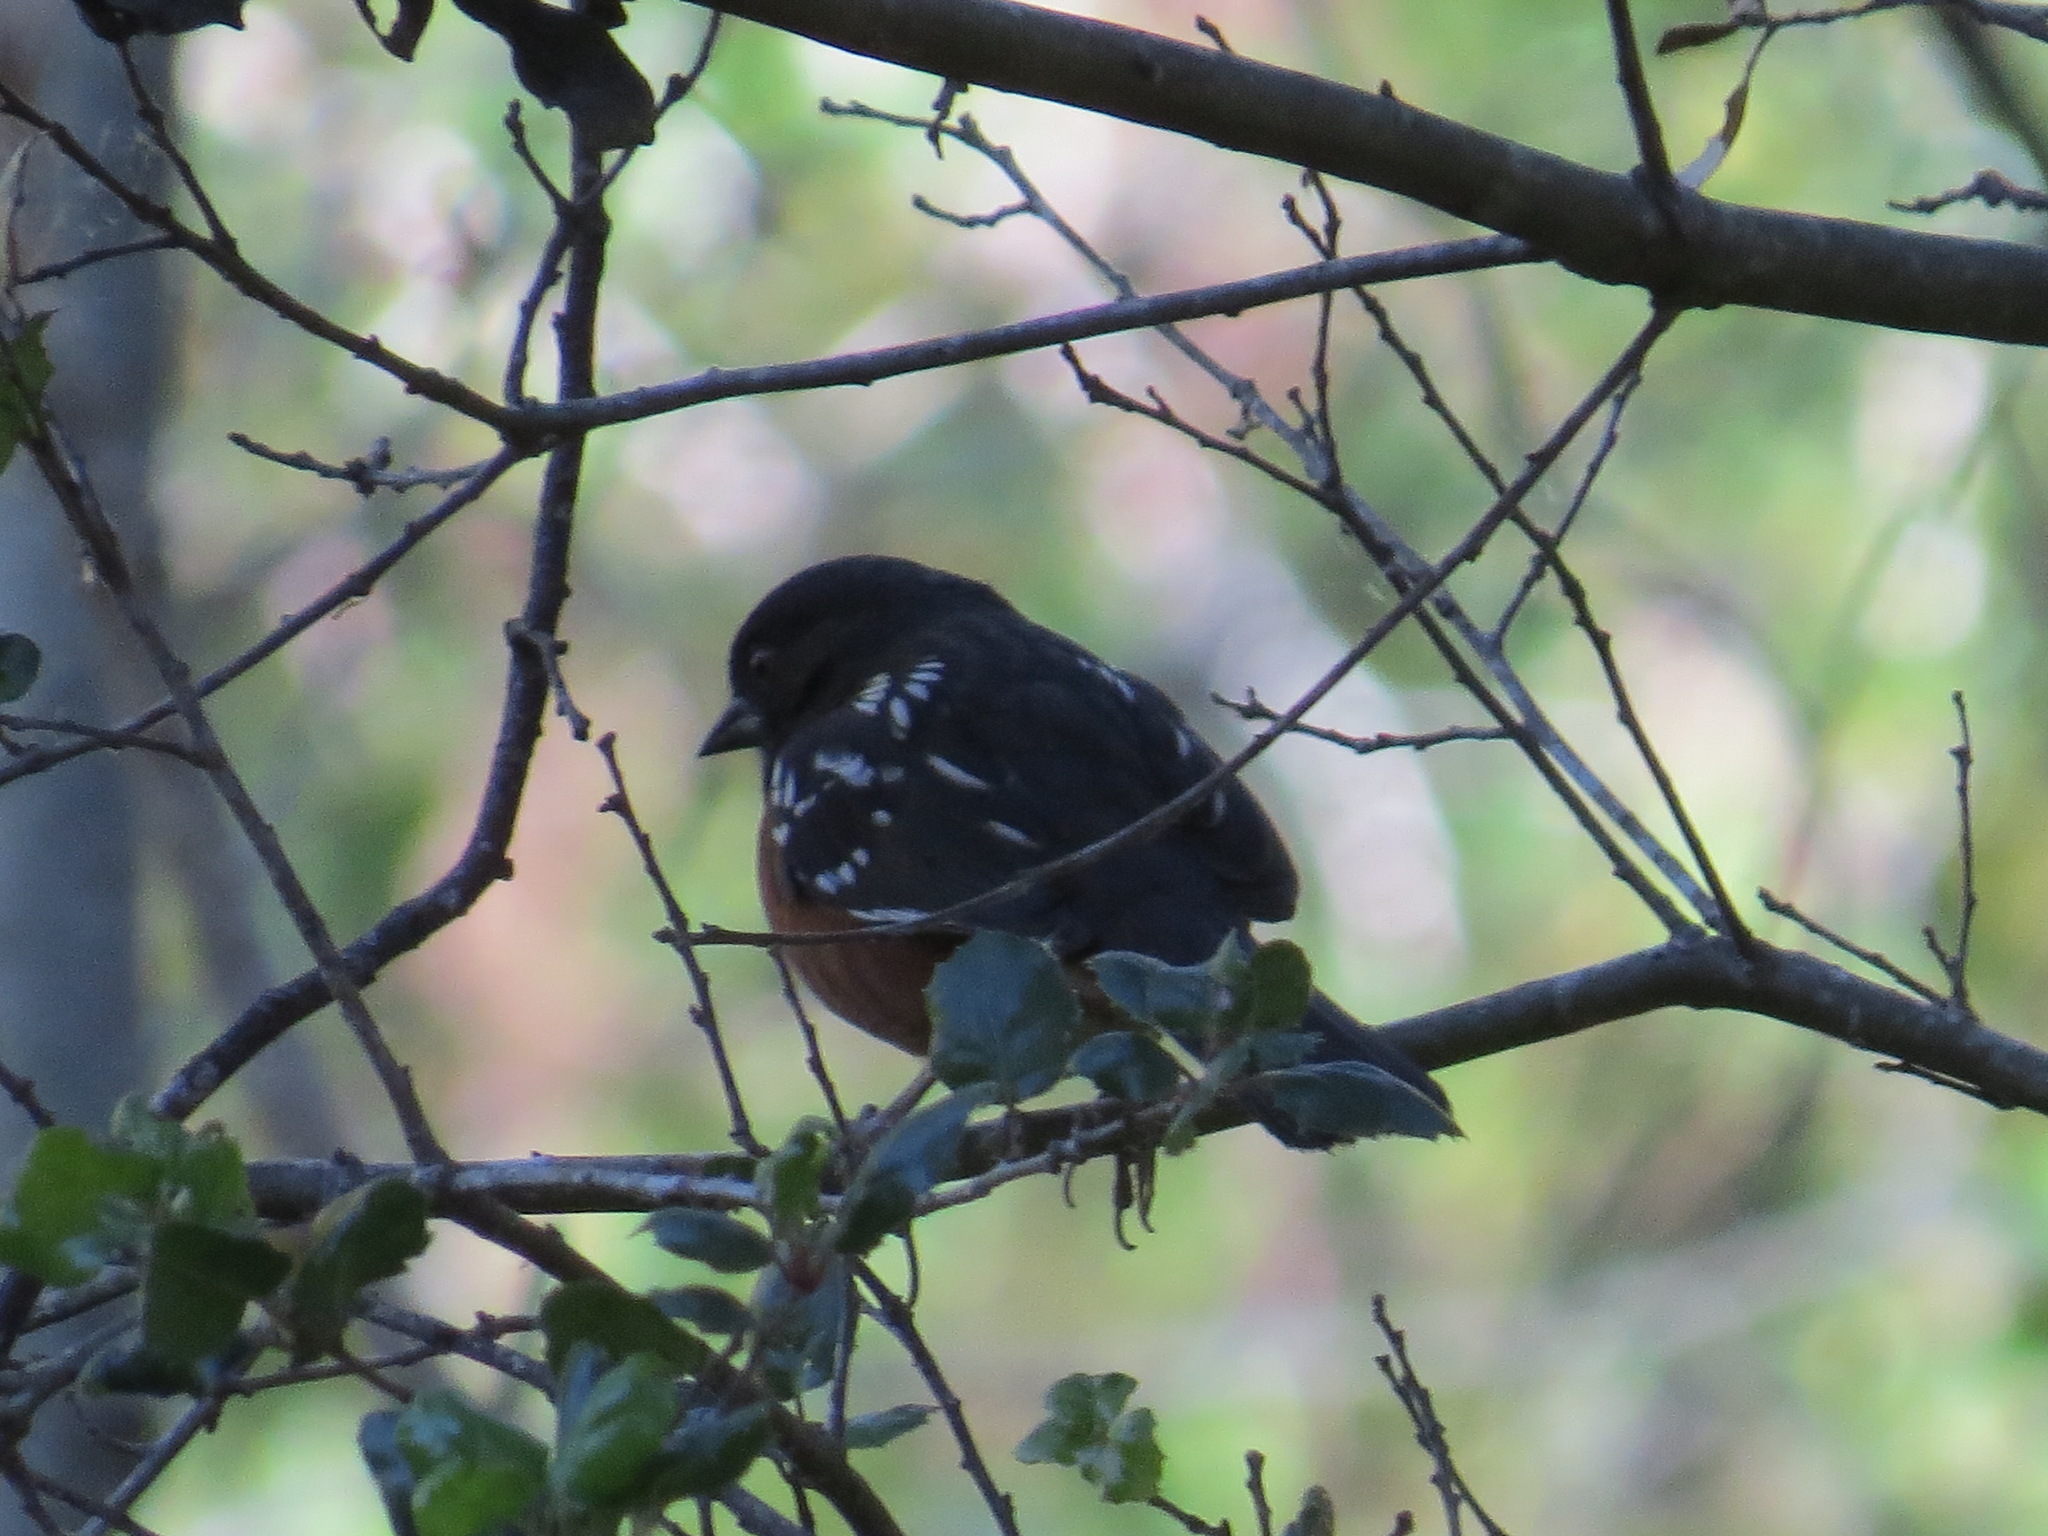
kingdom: Animalia
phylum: Chordata
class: Aves
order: Passeriformes
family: Passerellidae
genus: Pipilo
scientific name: Pipilo maculatus
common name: Spotted towhee
